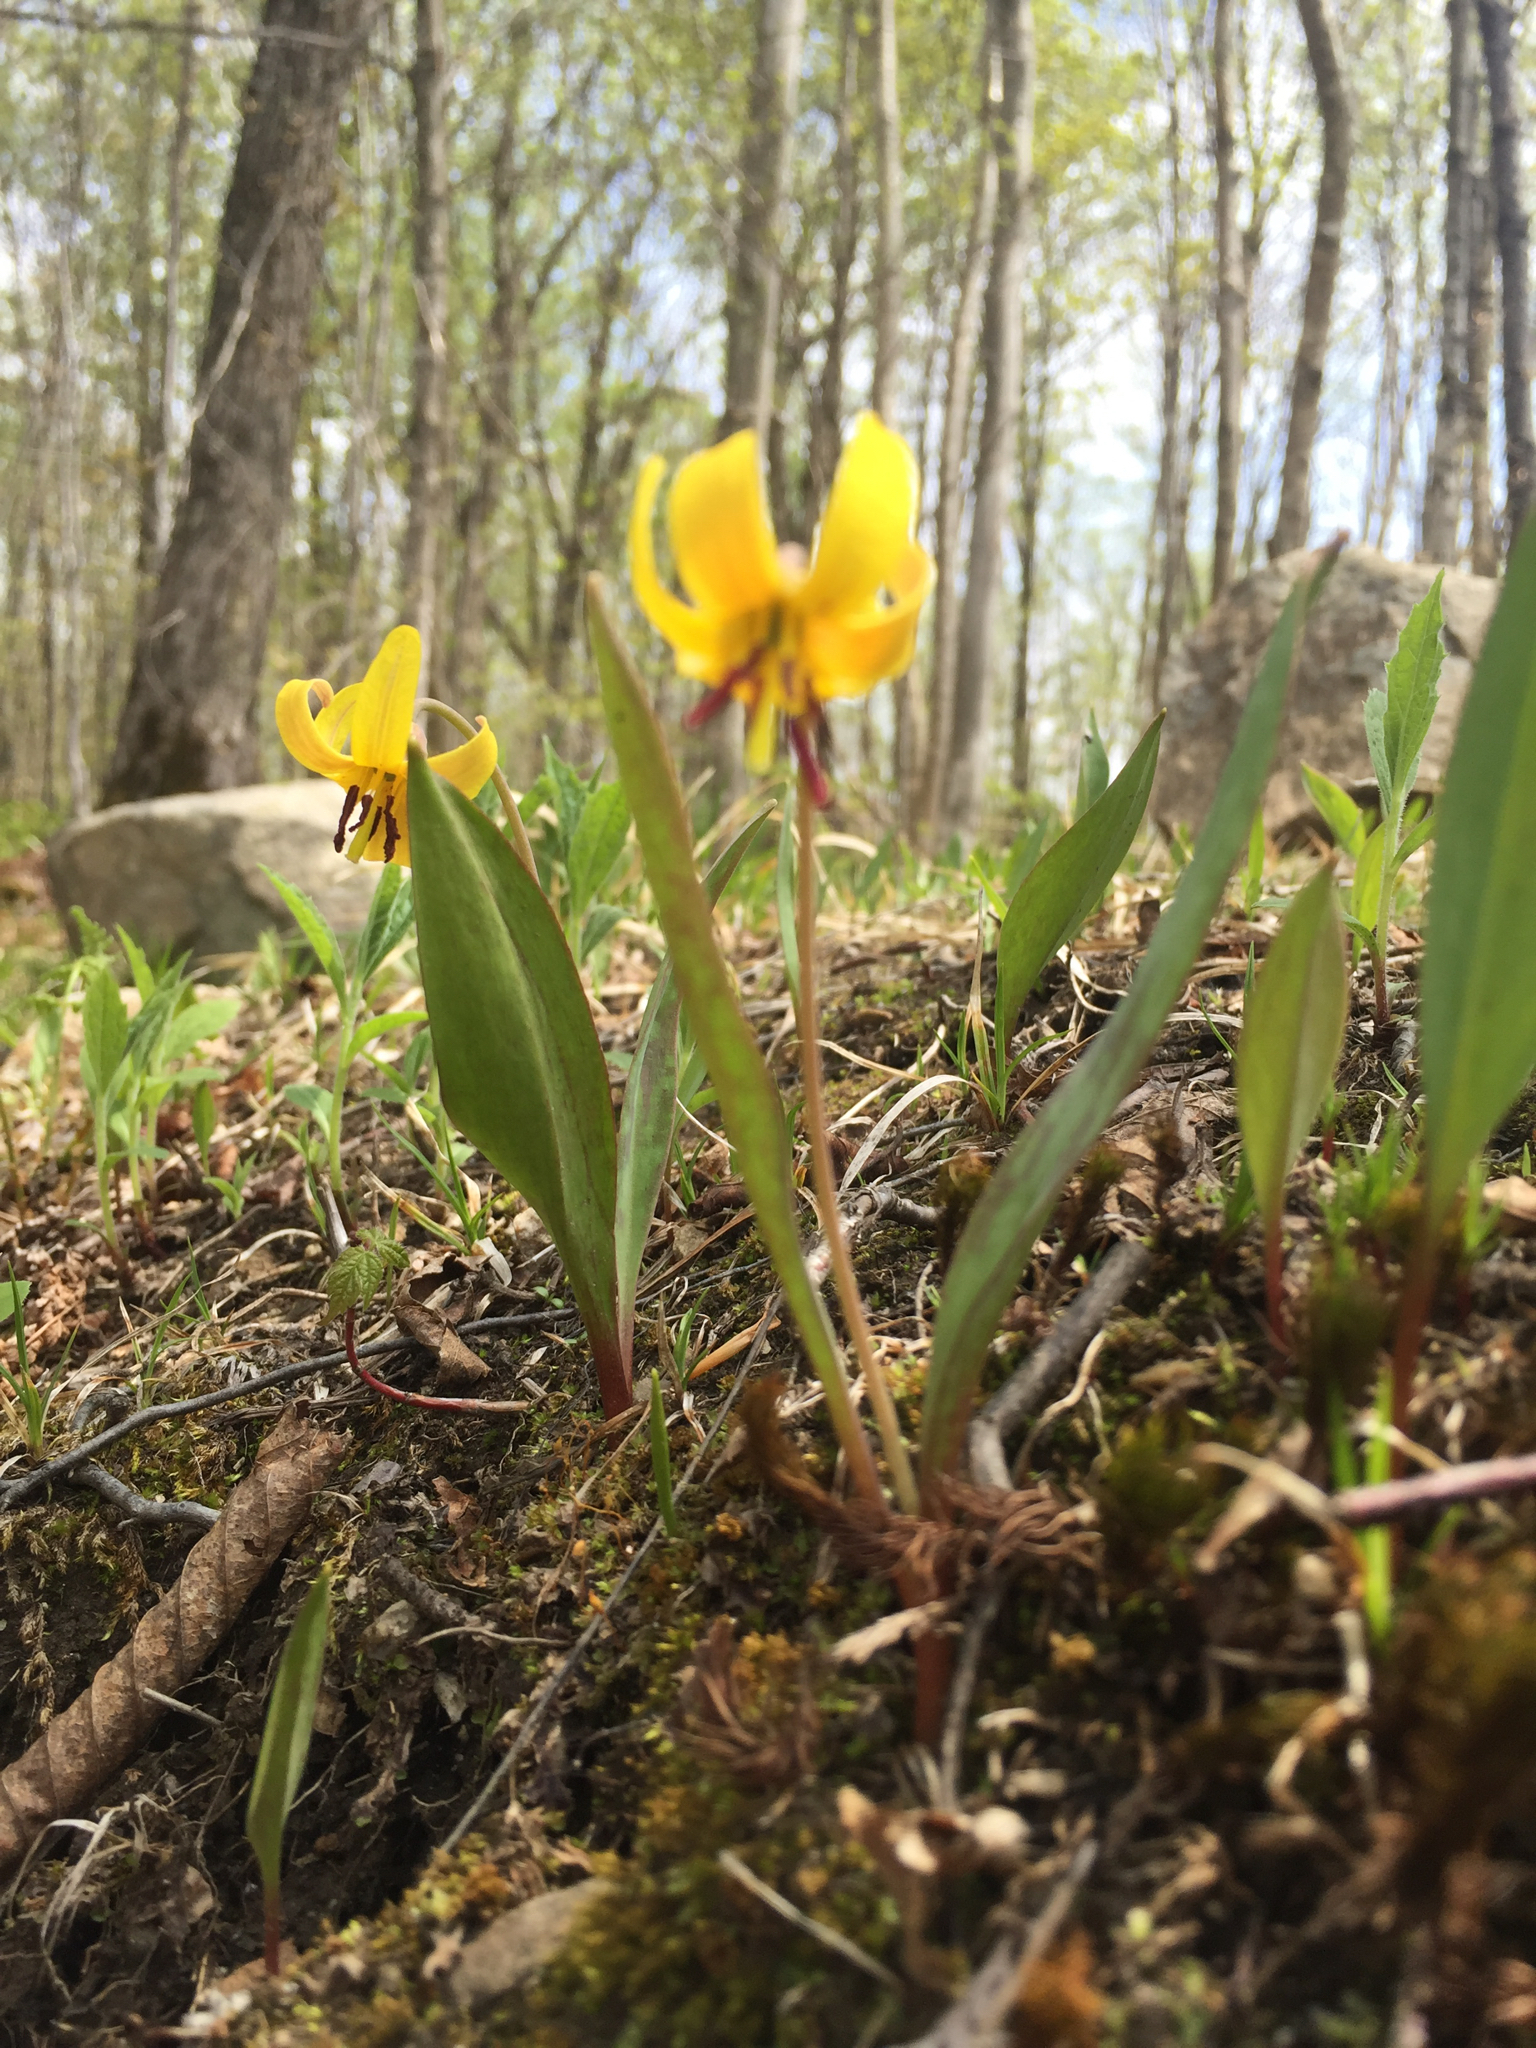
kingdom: Plantae
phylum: Tracheophyta
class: Liliopsida
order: Liliales
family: Liliaceae
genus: Erythronium
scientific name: Erythronium americanum
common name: Yellow adder's-tongue
